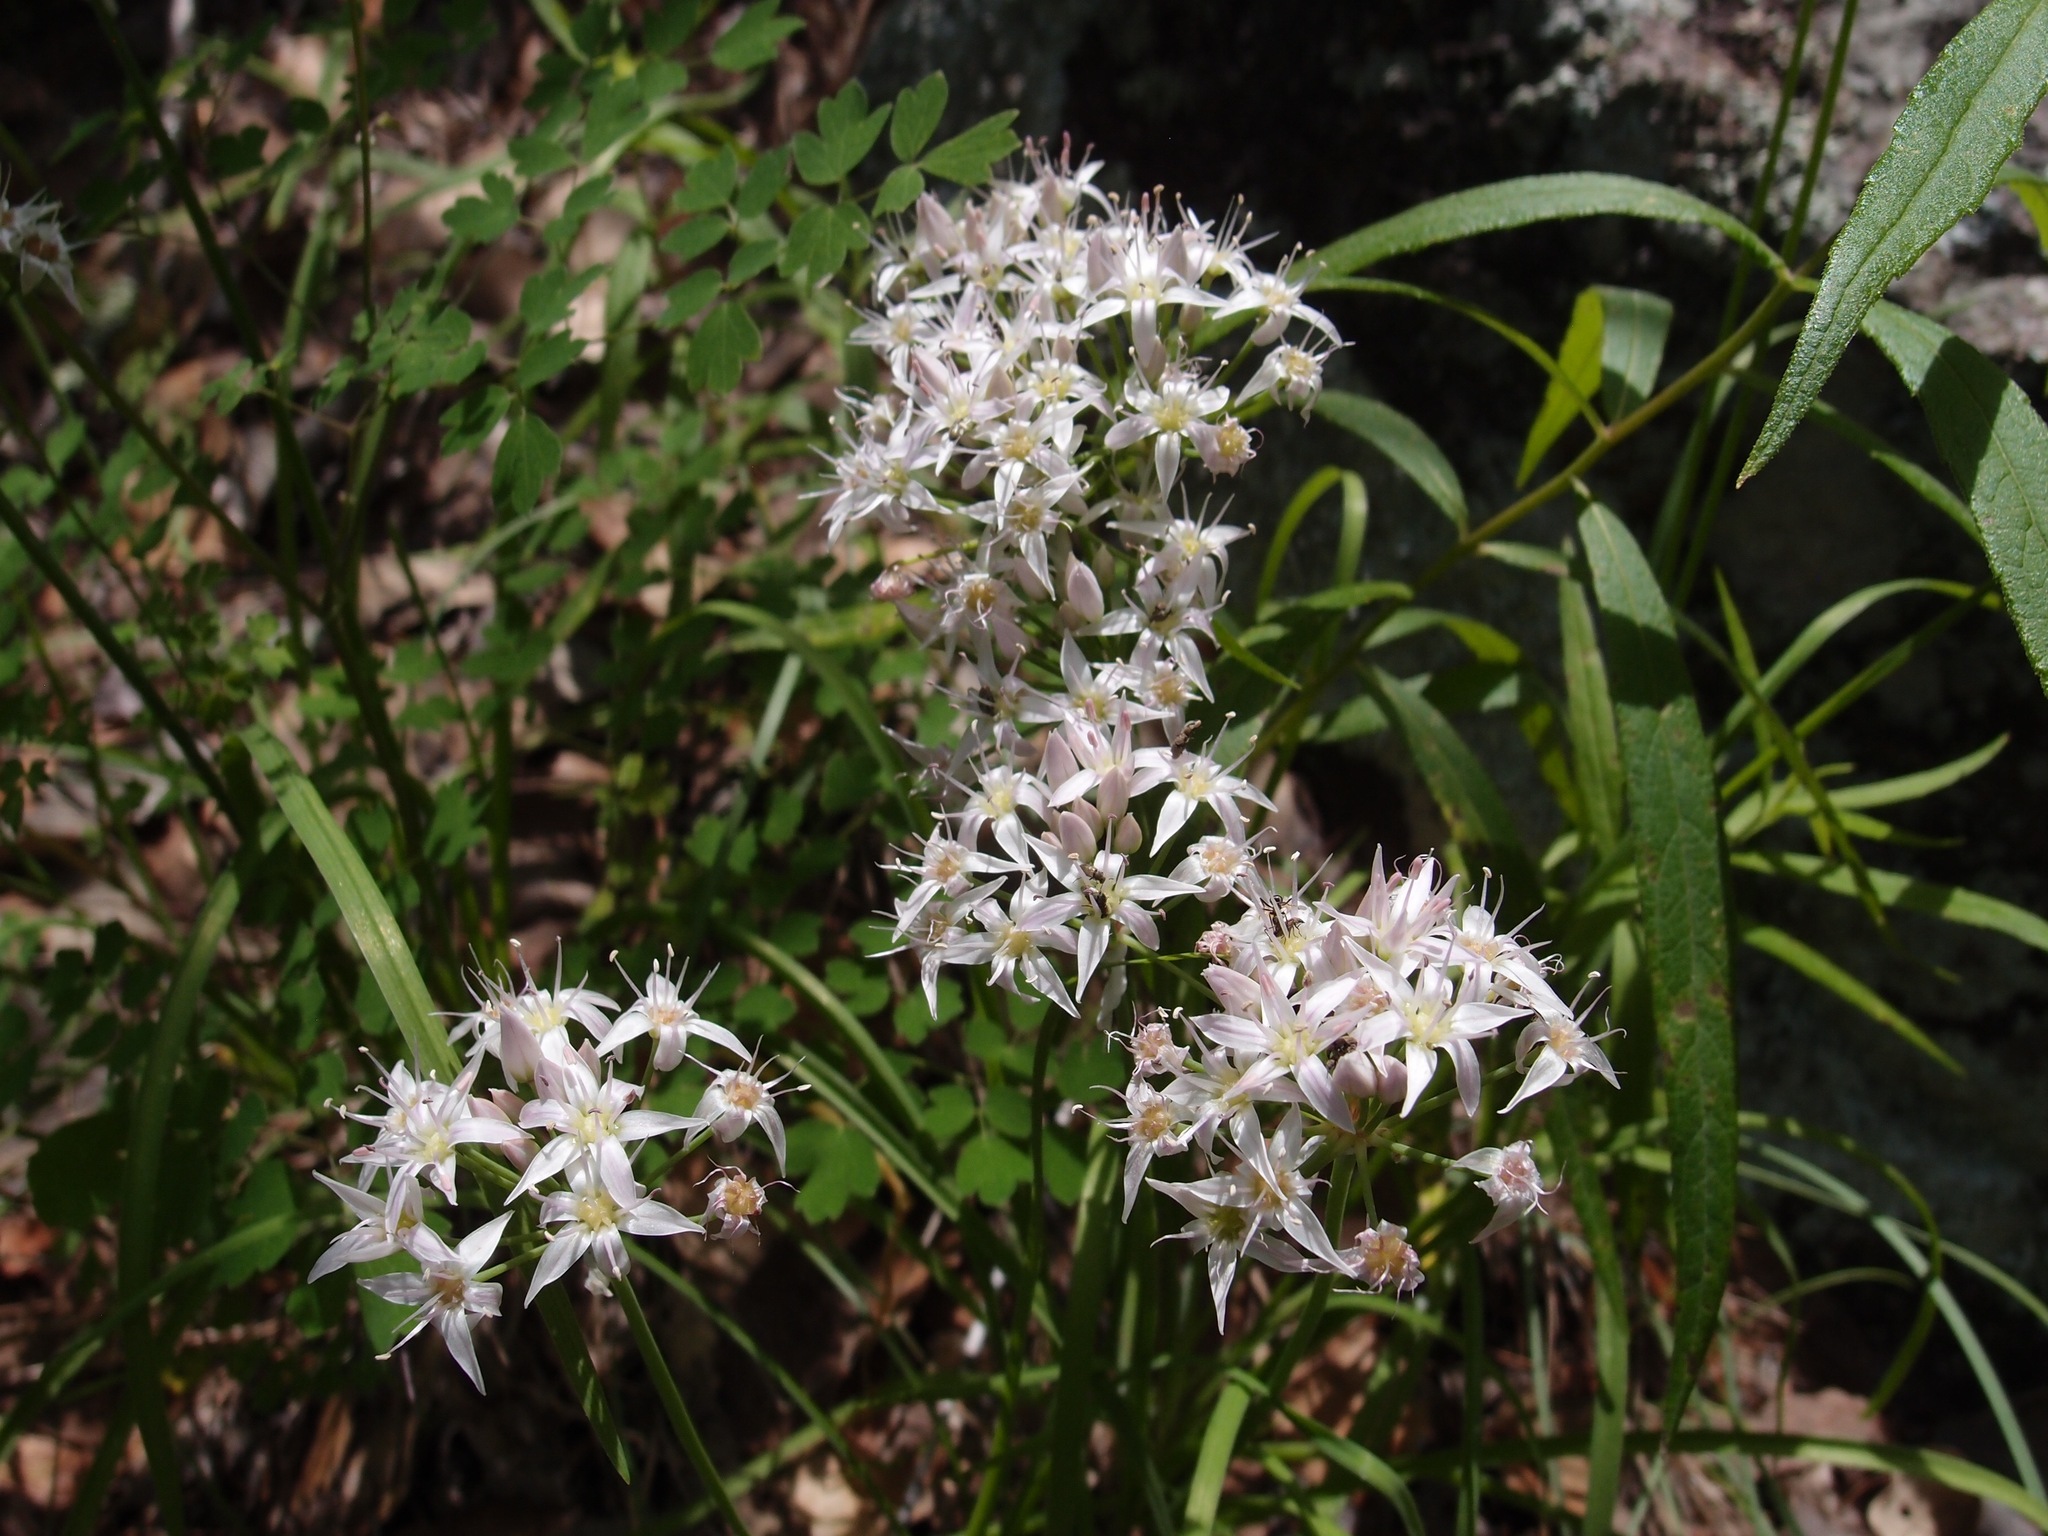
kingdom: Plantae
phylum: Tracheophyta
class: Liliopsida
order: Asparagales
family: Amaryllidaceae
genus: Allium
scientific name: Allium plummerae
